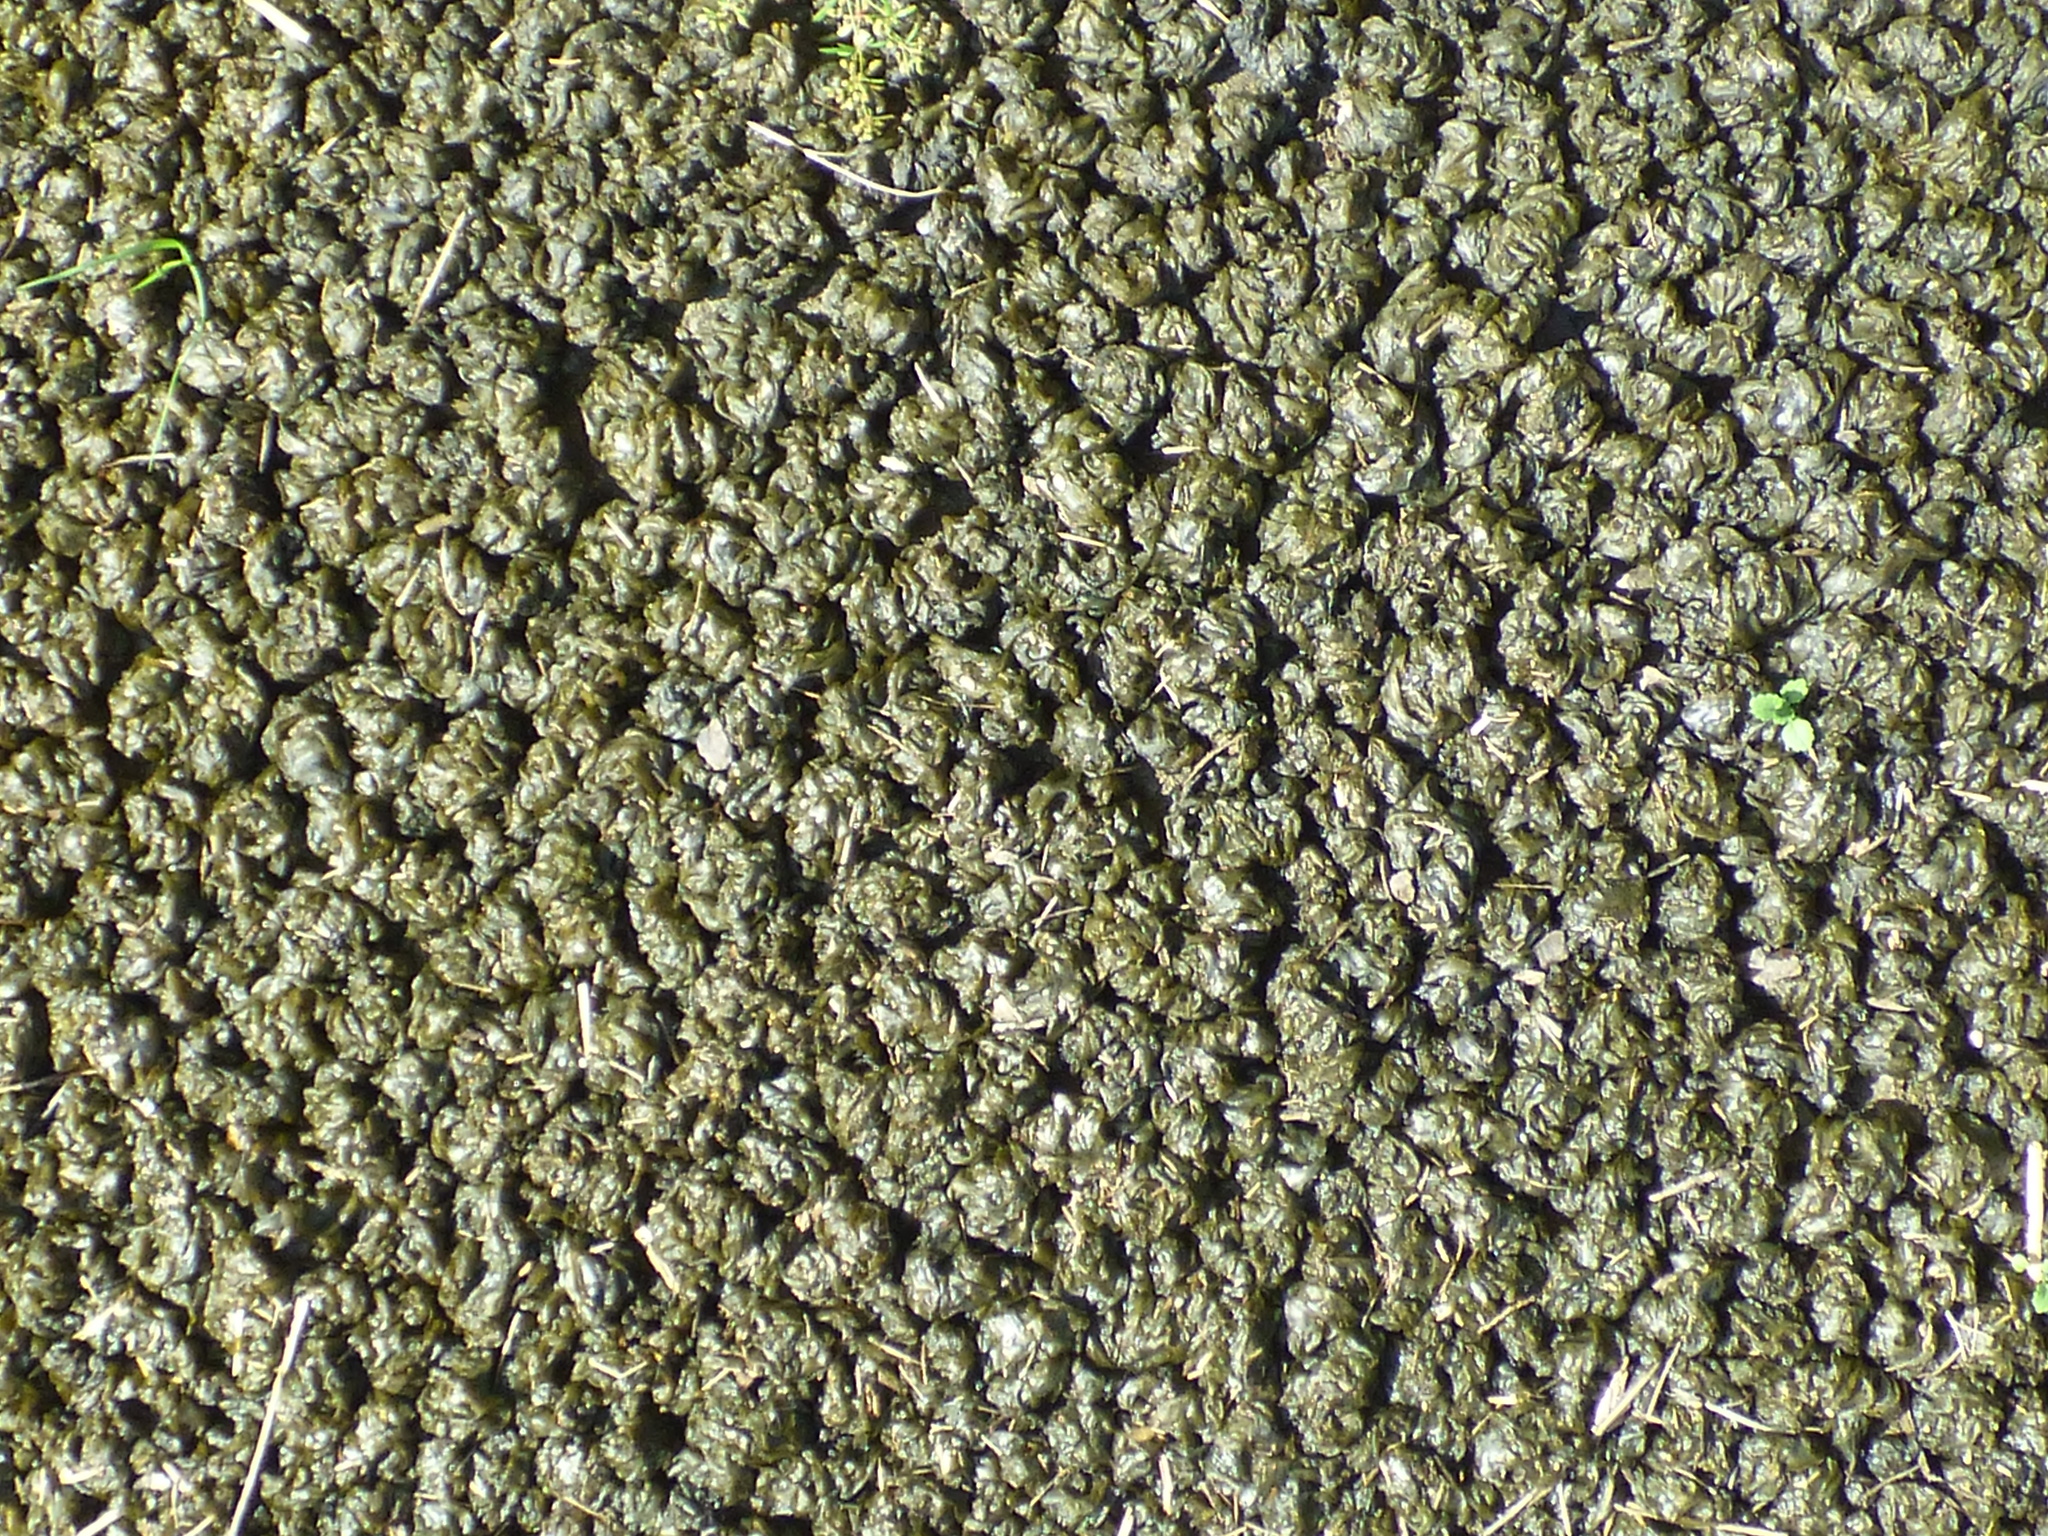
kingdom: Bacteria
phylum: Cyanobacteria
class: Cyanobacteriia
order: Cyanobacteriales
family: Nostocaceae
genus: Nostoc
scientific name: Nostoc commune
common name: Star jelly
